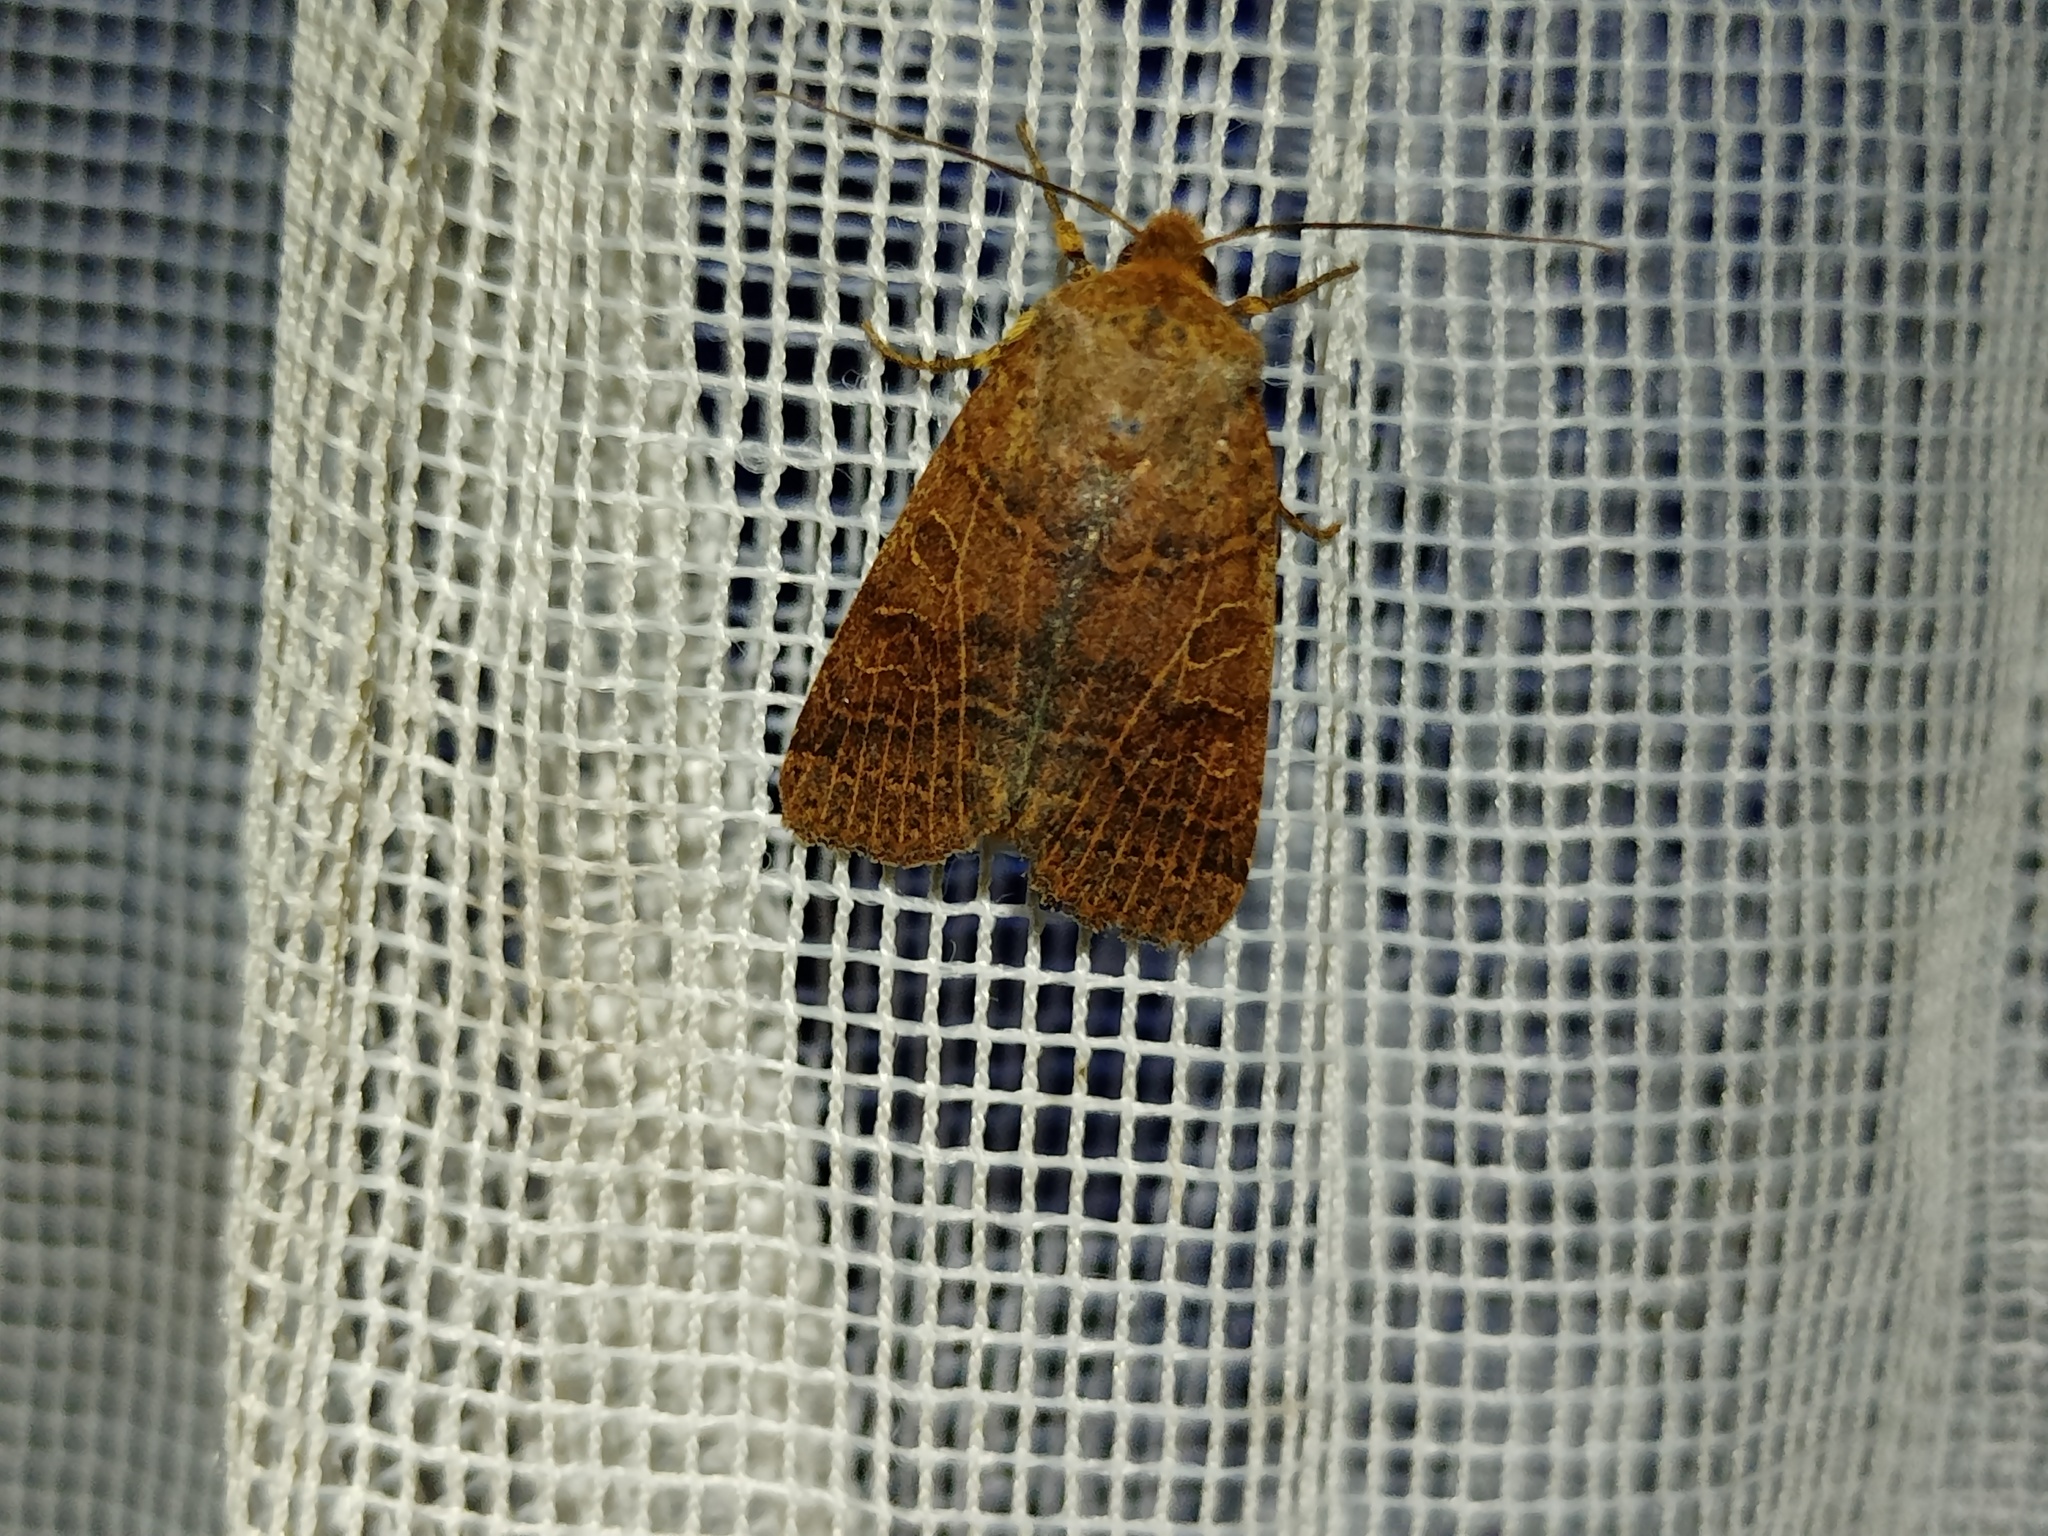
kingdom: Animalia
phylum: Arthropoda
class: Insecta
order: Lepidoptera
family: Noctuidae
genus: Agrochola
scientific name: Agrochola nitida
